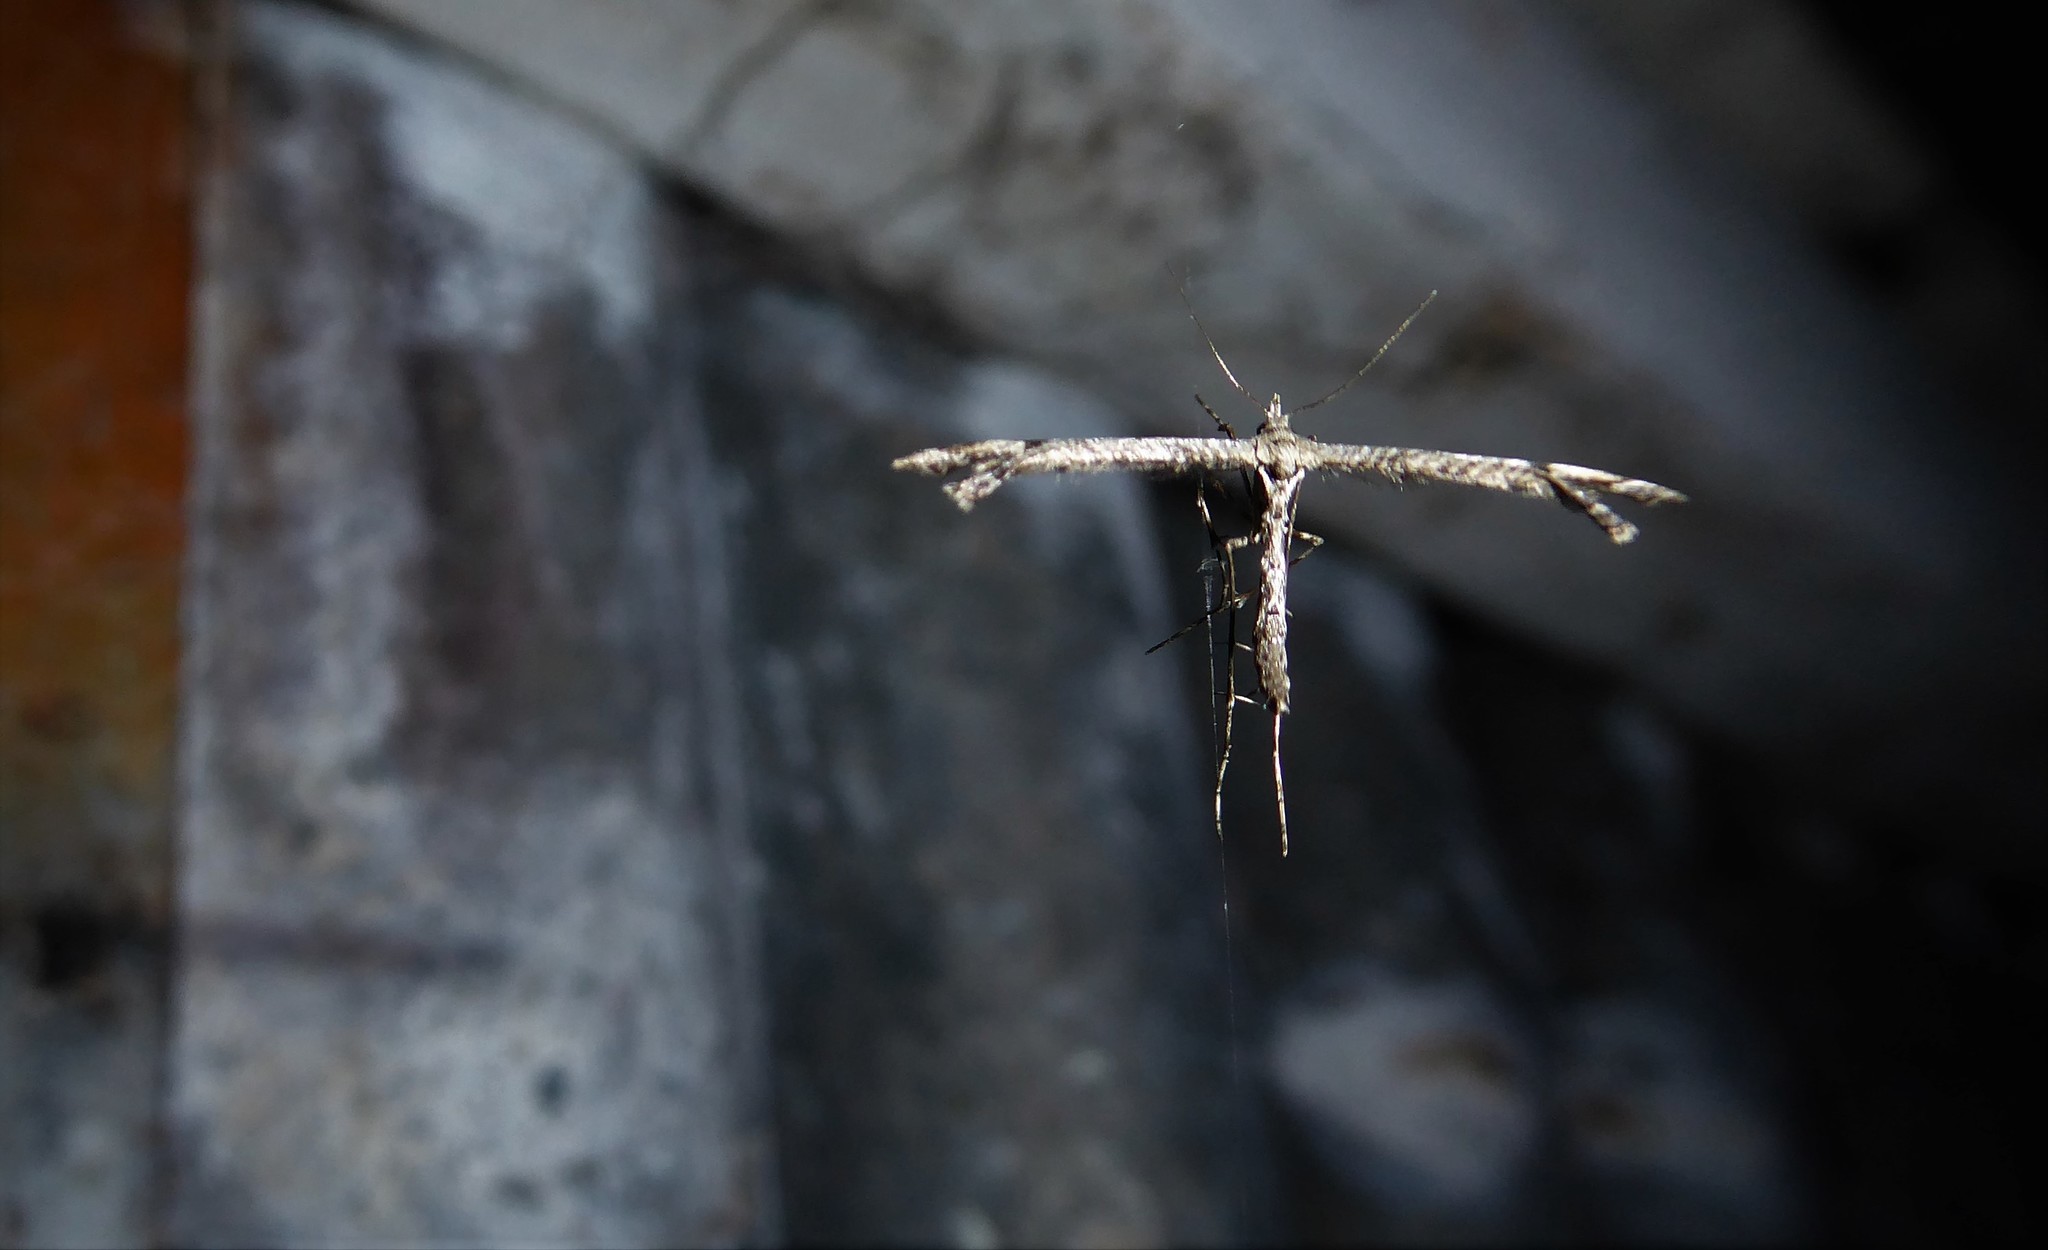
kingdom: Animalia
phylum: Arthropoda
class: Insecta
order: Lepidoptera
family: Pterophoridae
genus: Amblyptilia
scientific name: Amblyptilia repletalis
